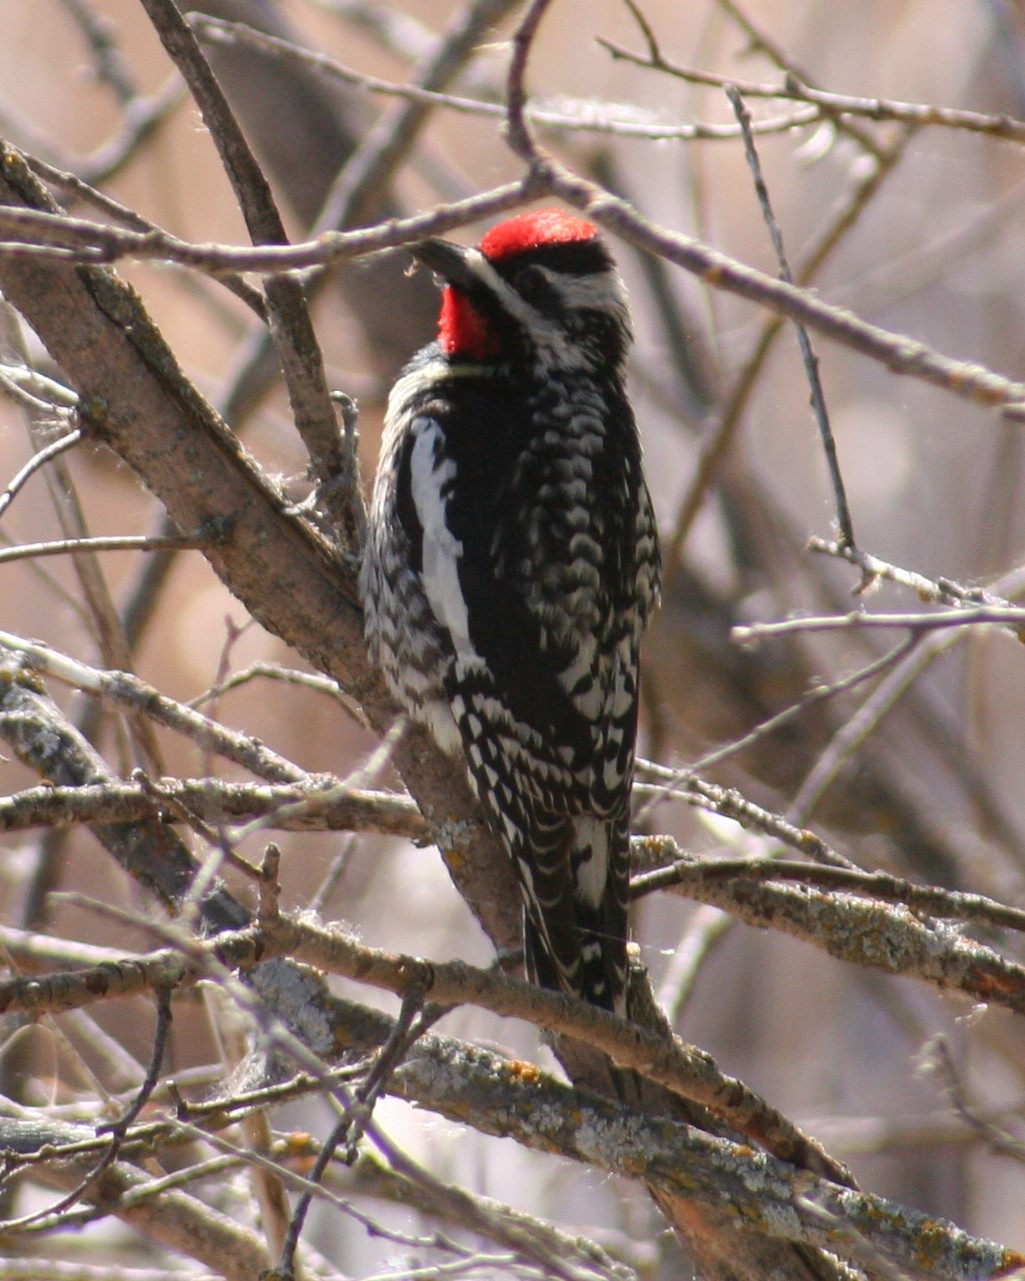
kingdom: Animalia
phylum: Chordata
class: Aves
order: Piciformes
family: Picidae
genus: Sphyrapicus
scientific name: Sphyrapicus varius
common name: Yellow-bellied sapsucker
